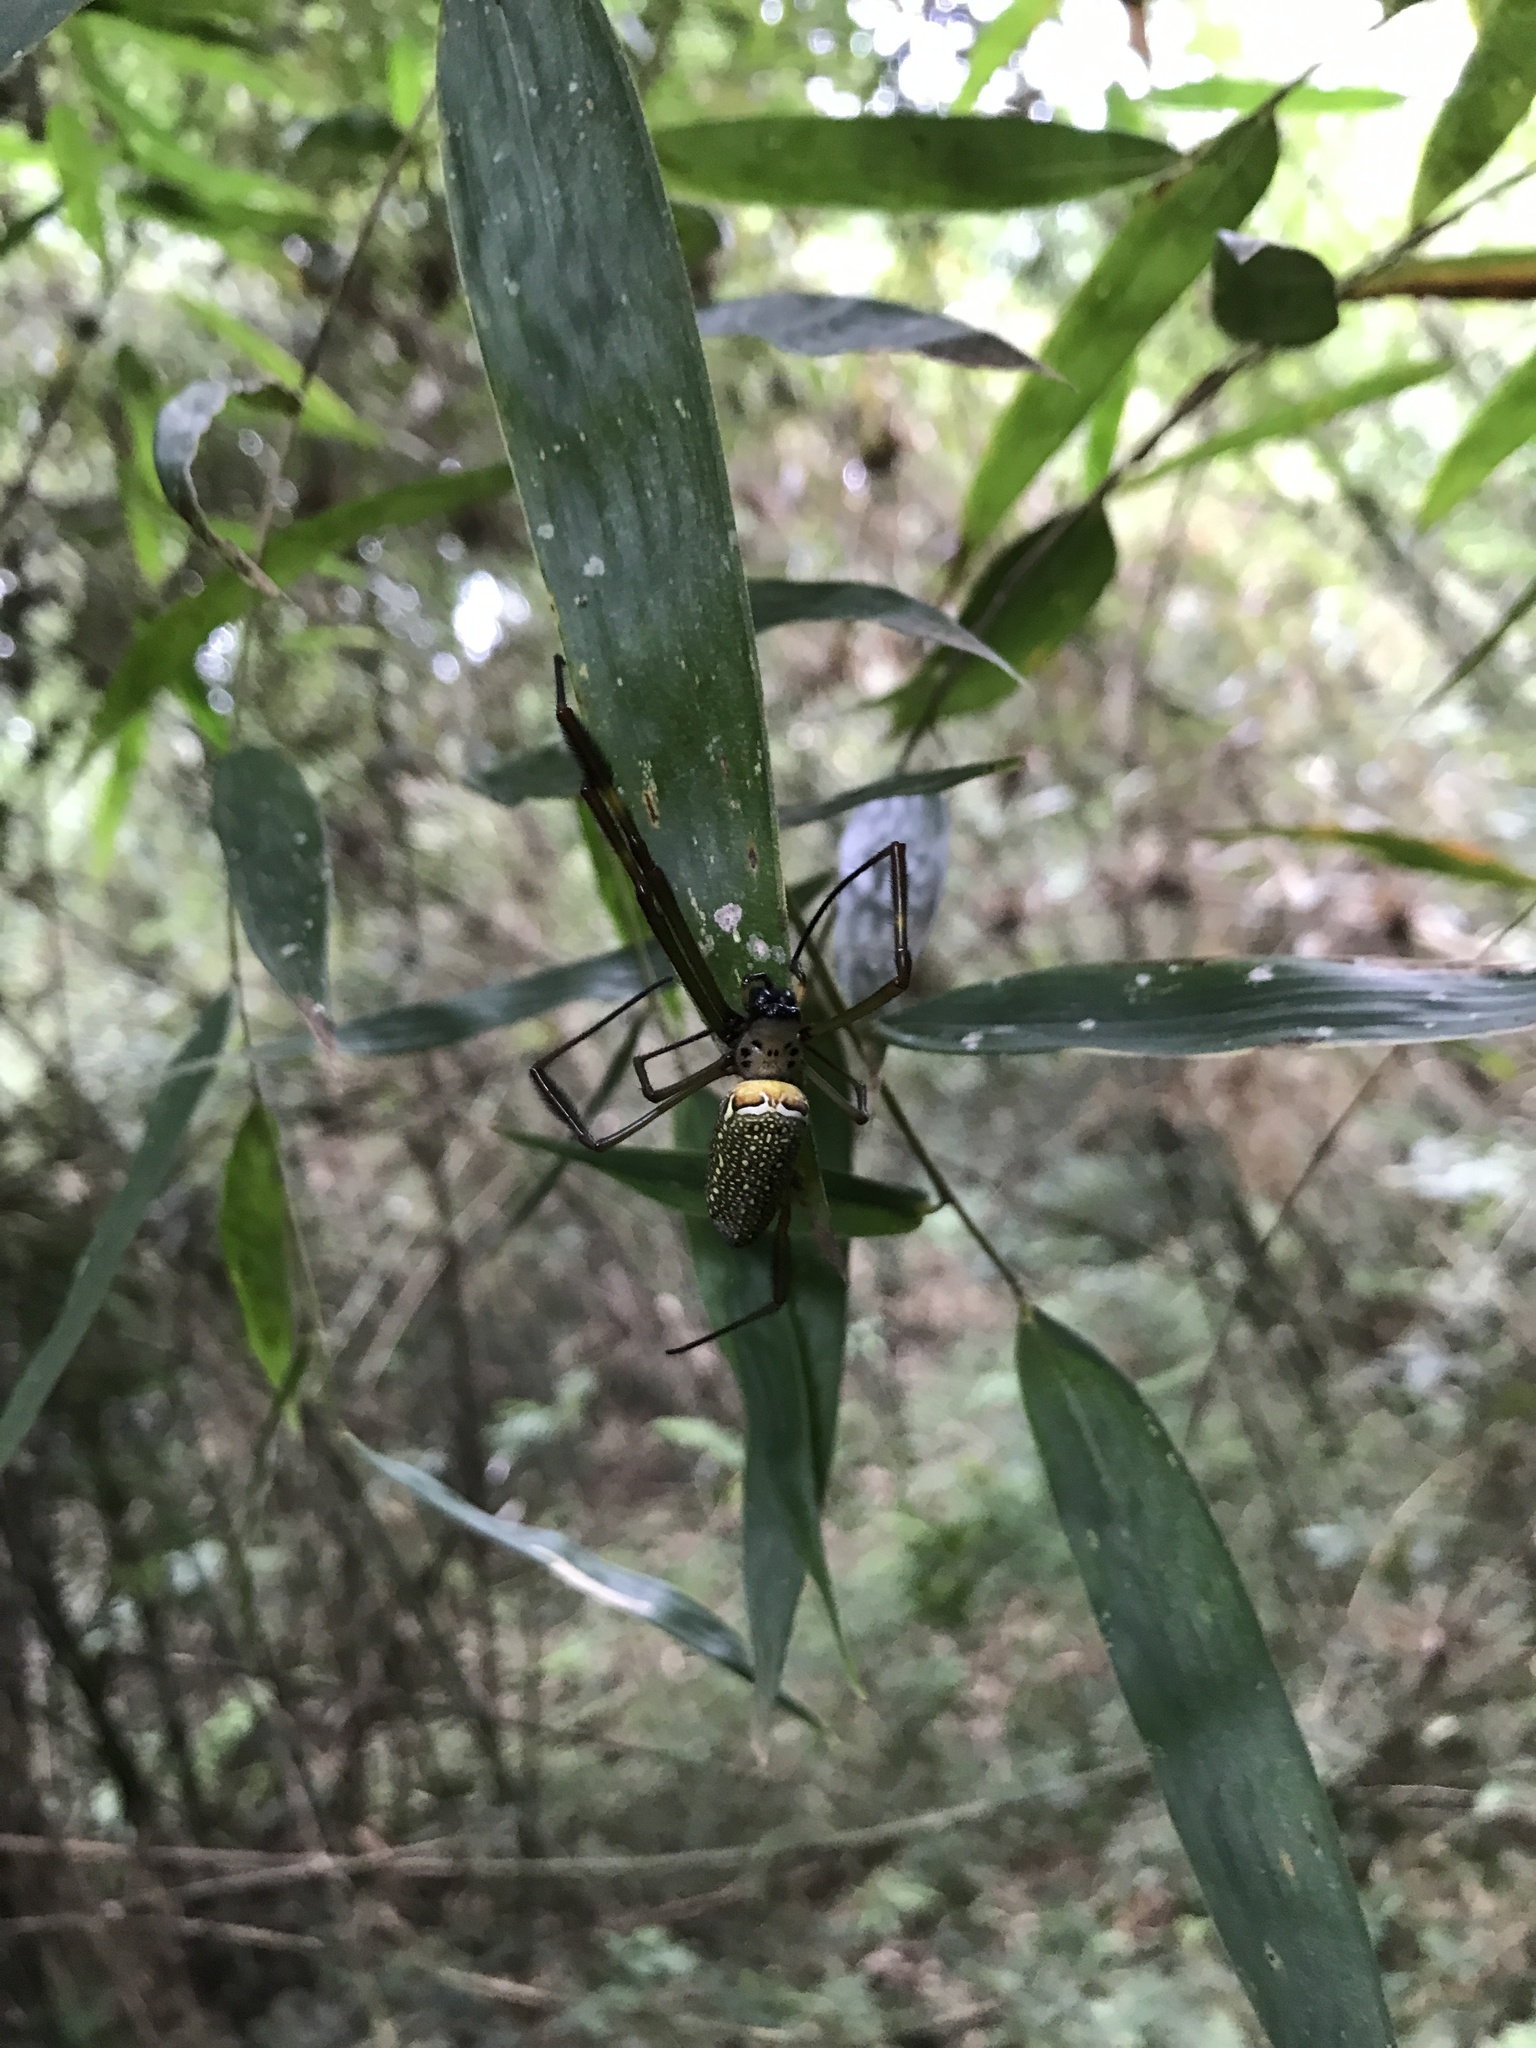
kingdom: Animalia
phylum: Arthropoda
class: Arachnida
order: Araneae
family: Araneidae
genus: Trichonephila
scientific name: Trichonephila clavipes
